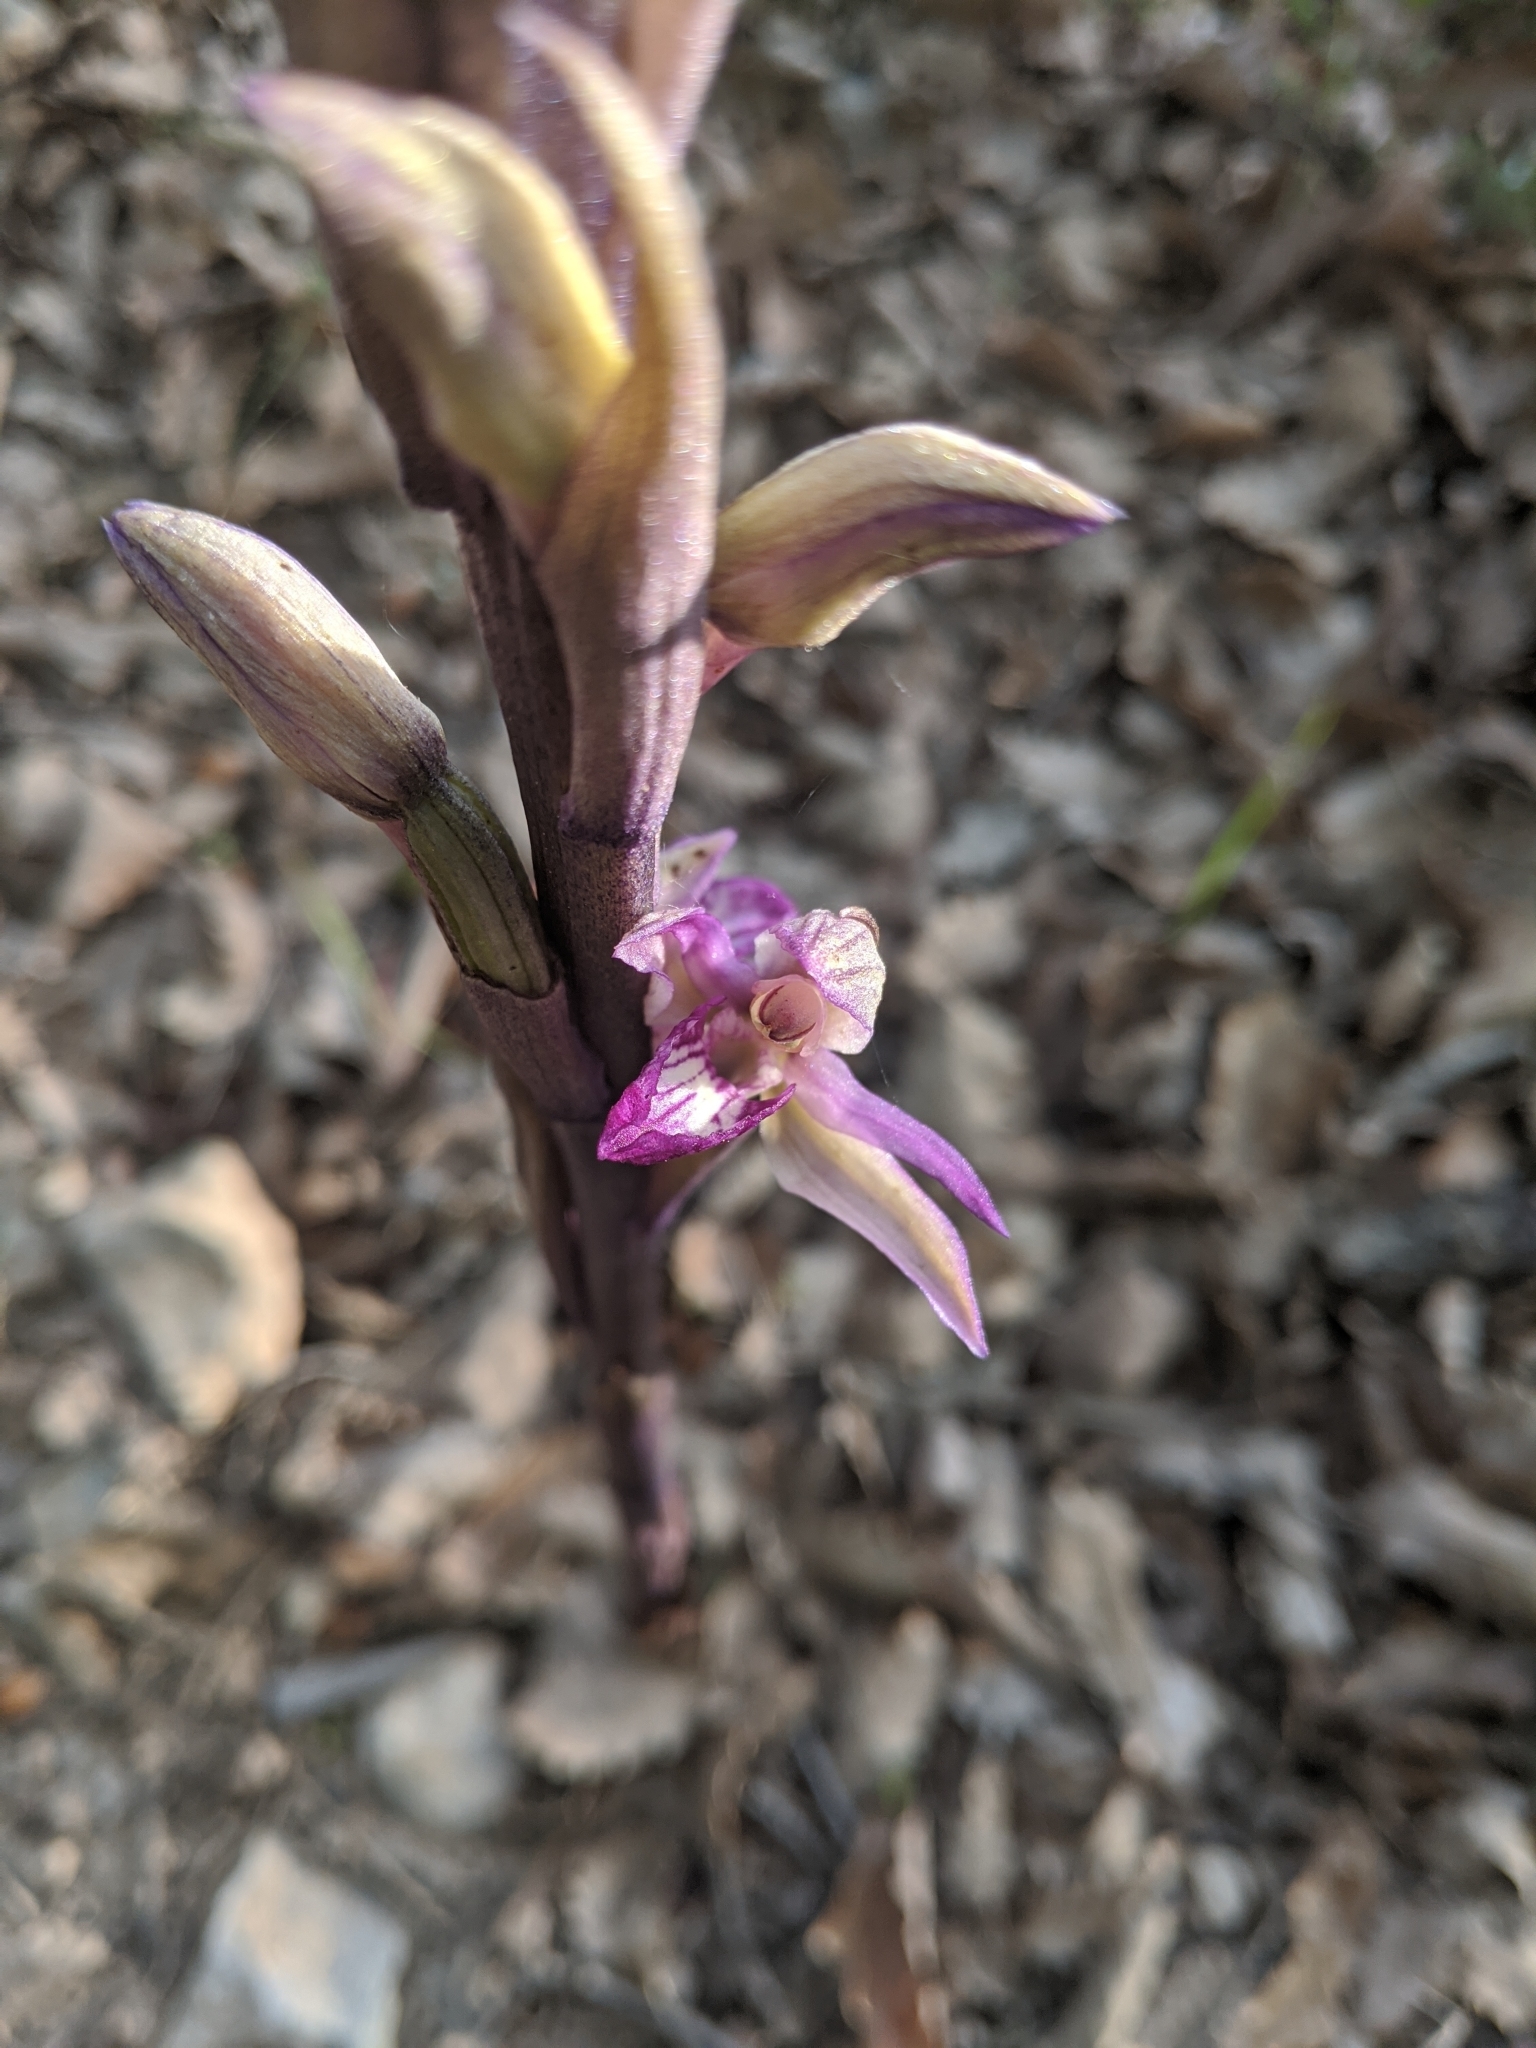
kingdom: Plantae
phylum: Tracheophyta
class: Liliopsida
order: Asparagales
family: Orchidaceae
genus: Limodorum
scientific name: Limodorum abortivum
